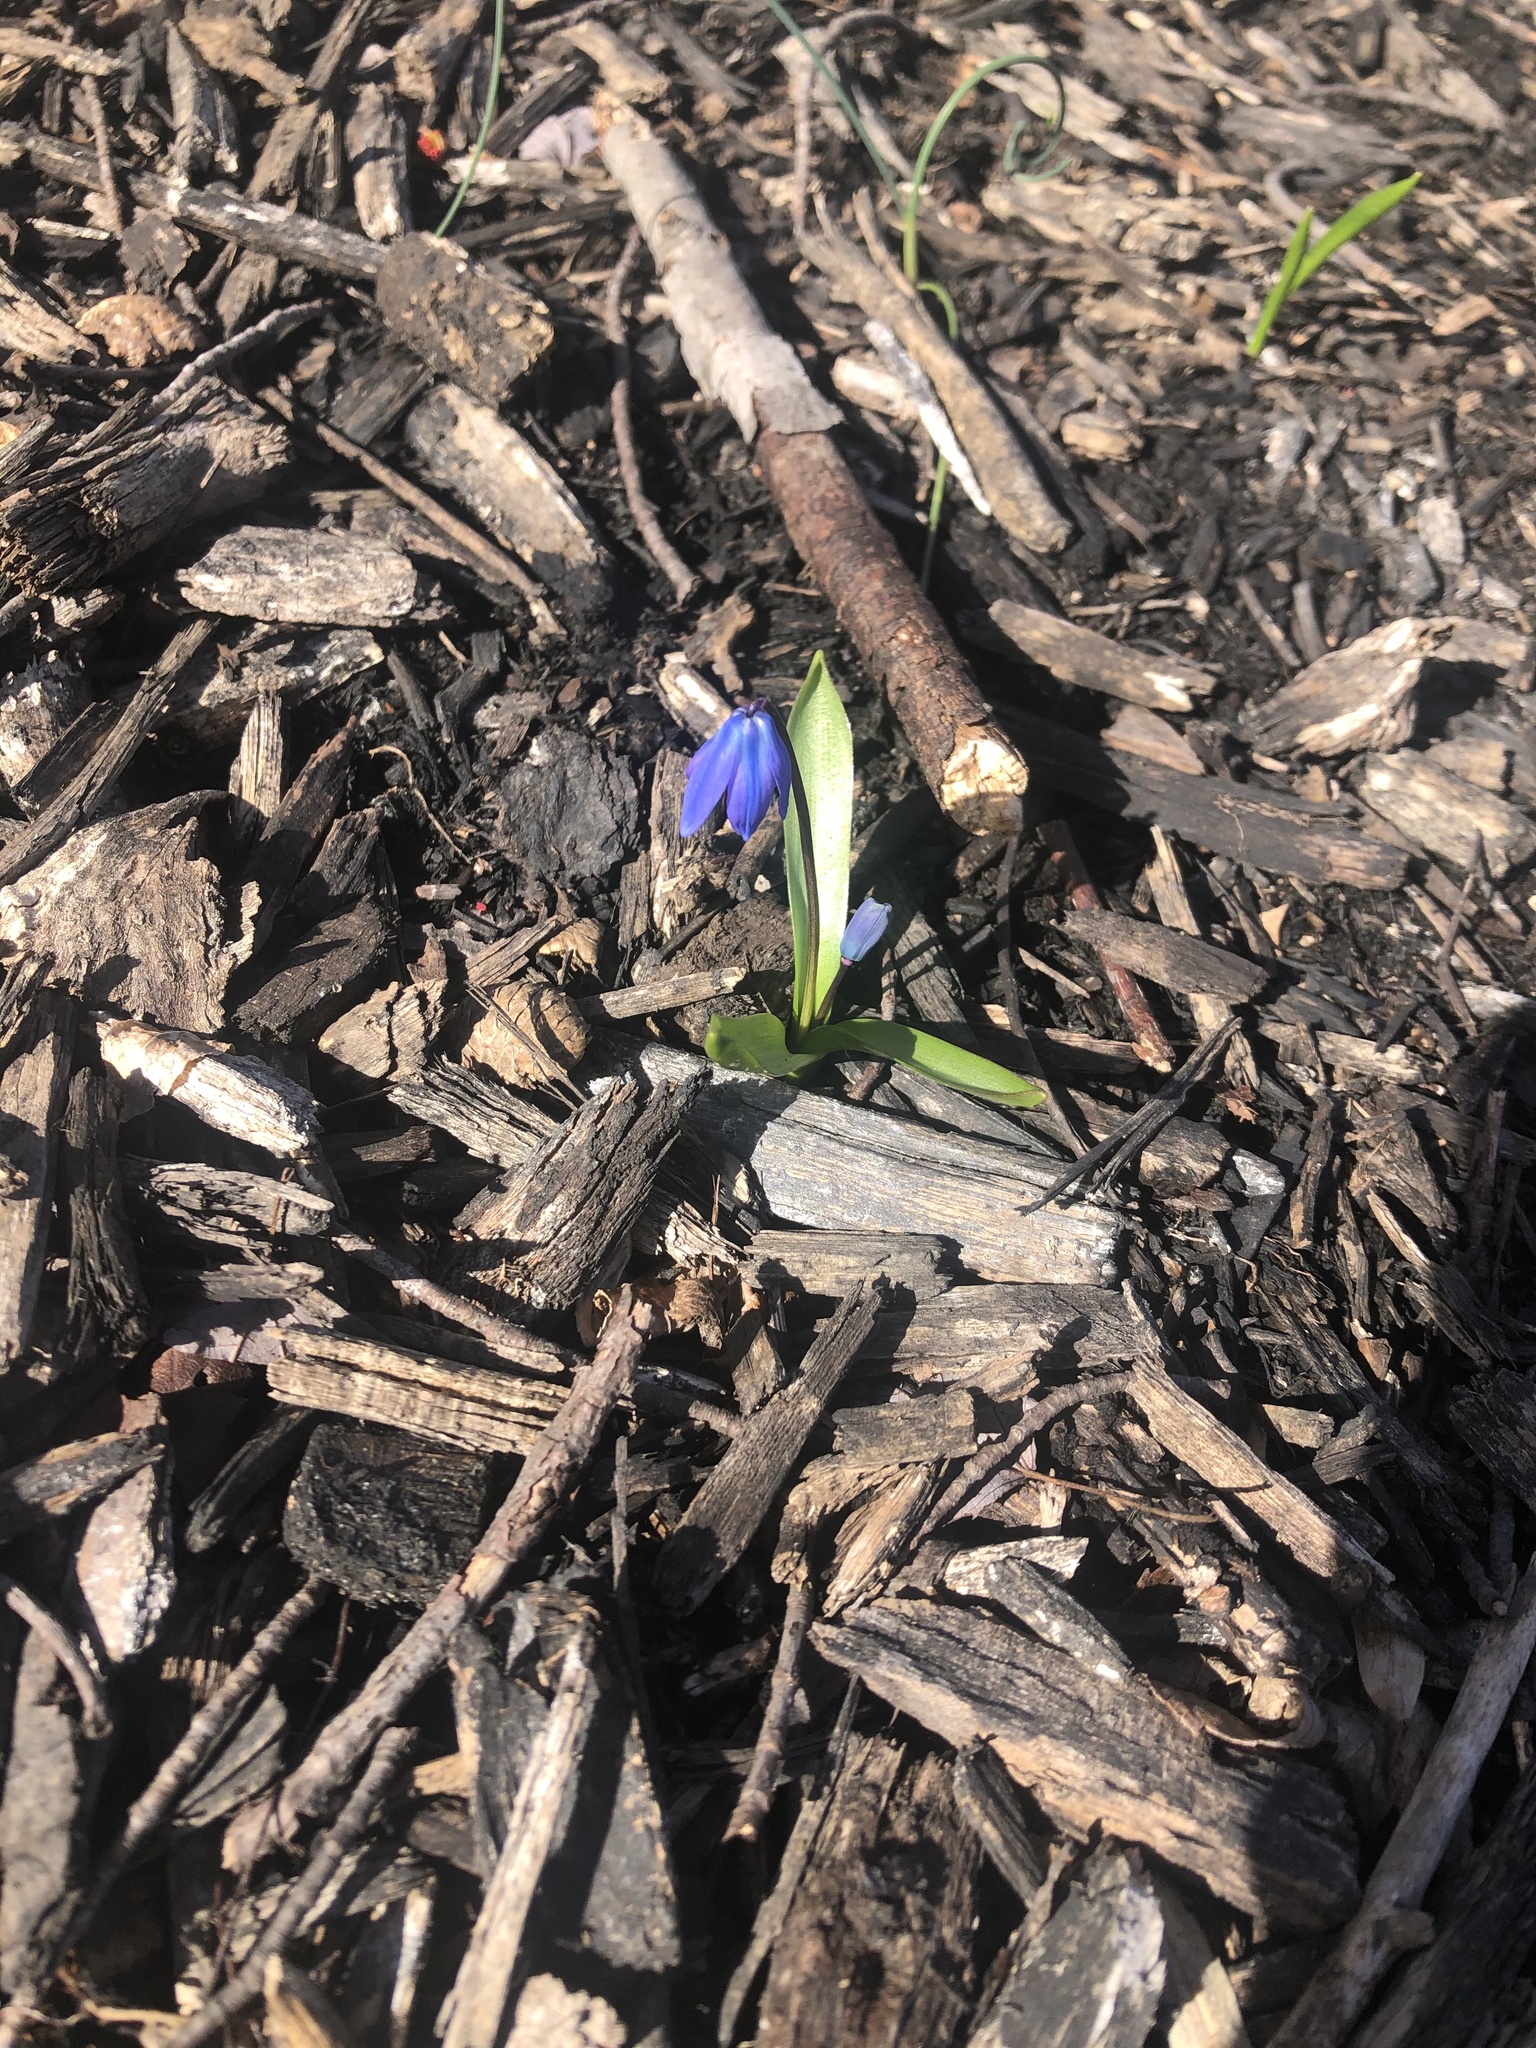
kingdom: Plantae
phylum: Tracheophyta
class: Liliopsida
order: Asparagales
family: Asparagaceae
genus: Scilla
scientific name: Scilla siberica
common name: Siberian squill
